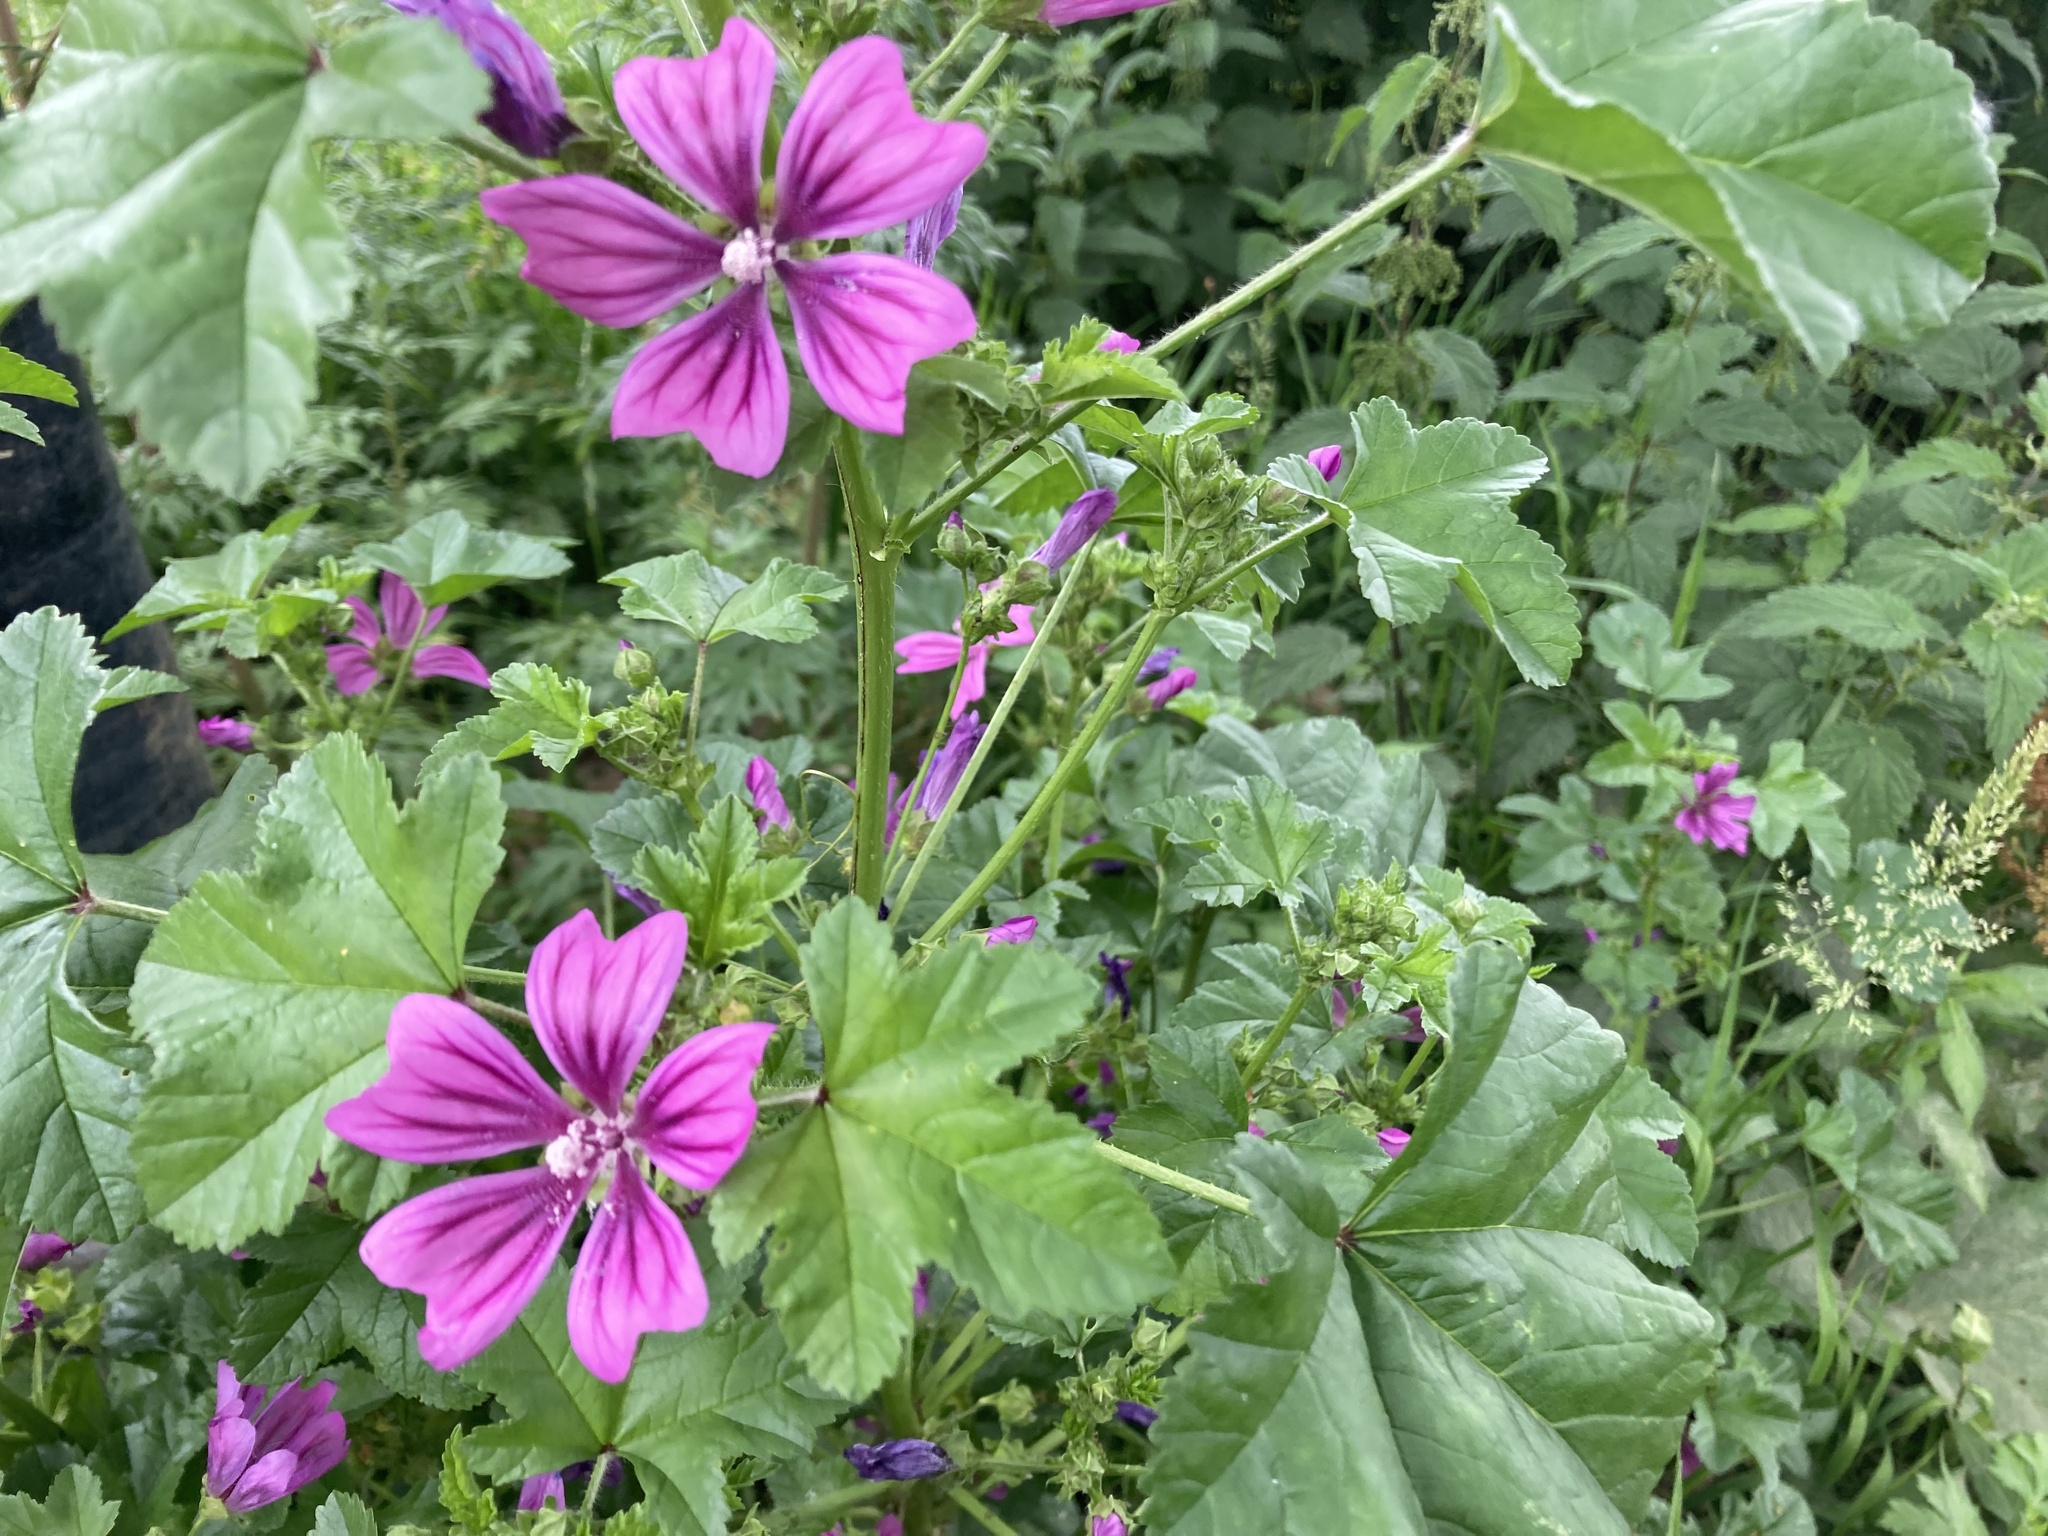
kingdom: Plantae
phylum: Tracheophyta
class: Magnoliopsida
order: Malvales
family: Malvaceae
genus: Malva
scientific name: Malva sylvestris
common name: Common mallow
